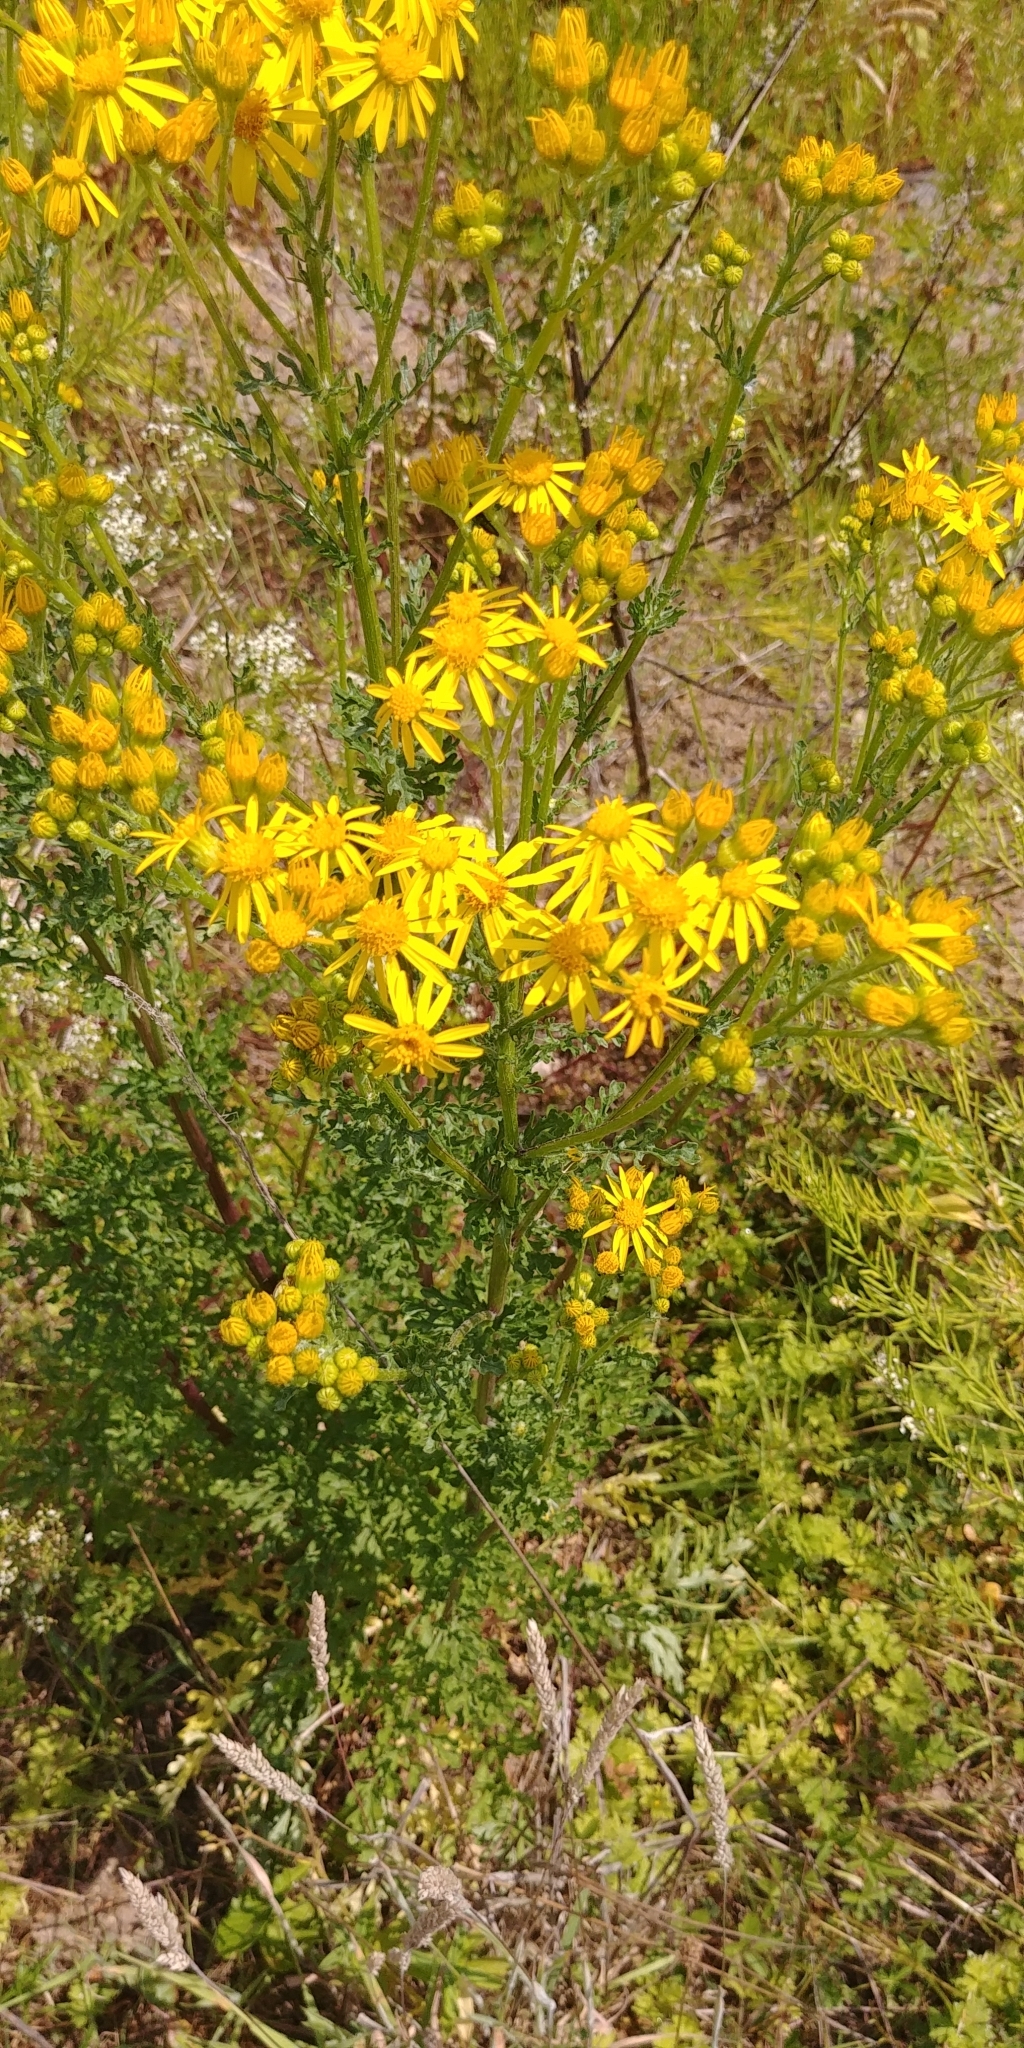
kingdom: Plantae
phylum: Tracheophyta
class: Magnoliopsida
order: Asterales
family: Asteraceae
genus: Jacobaea
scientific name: Jacobaea vulgaris
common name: Stinking willie
